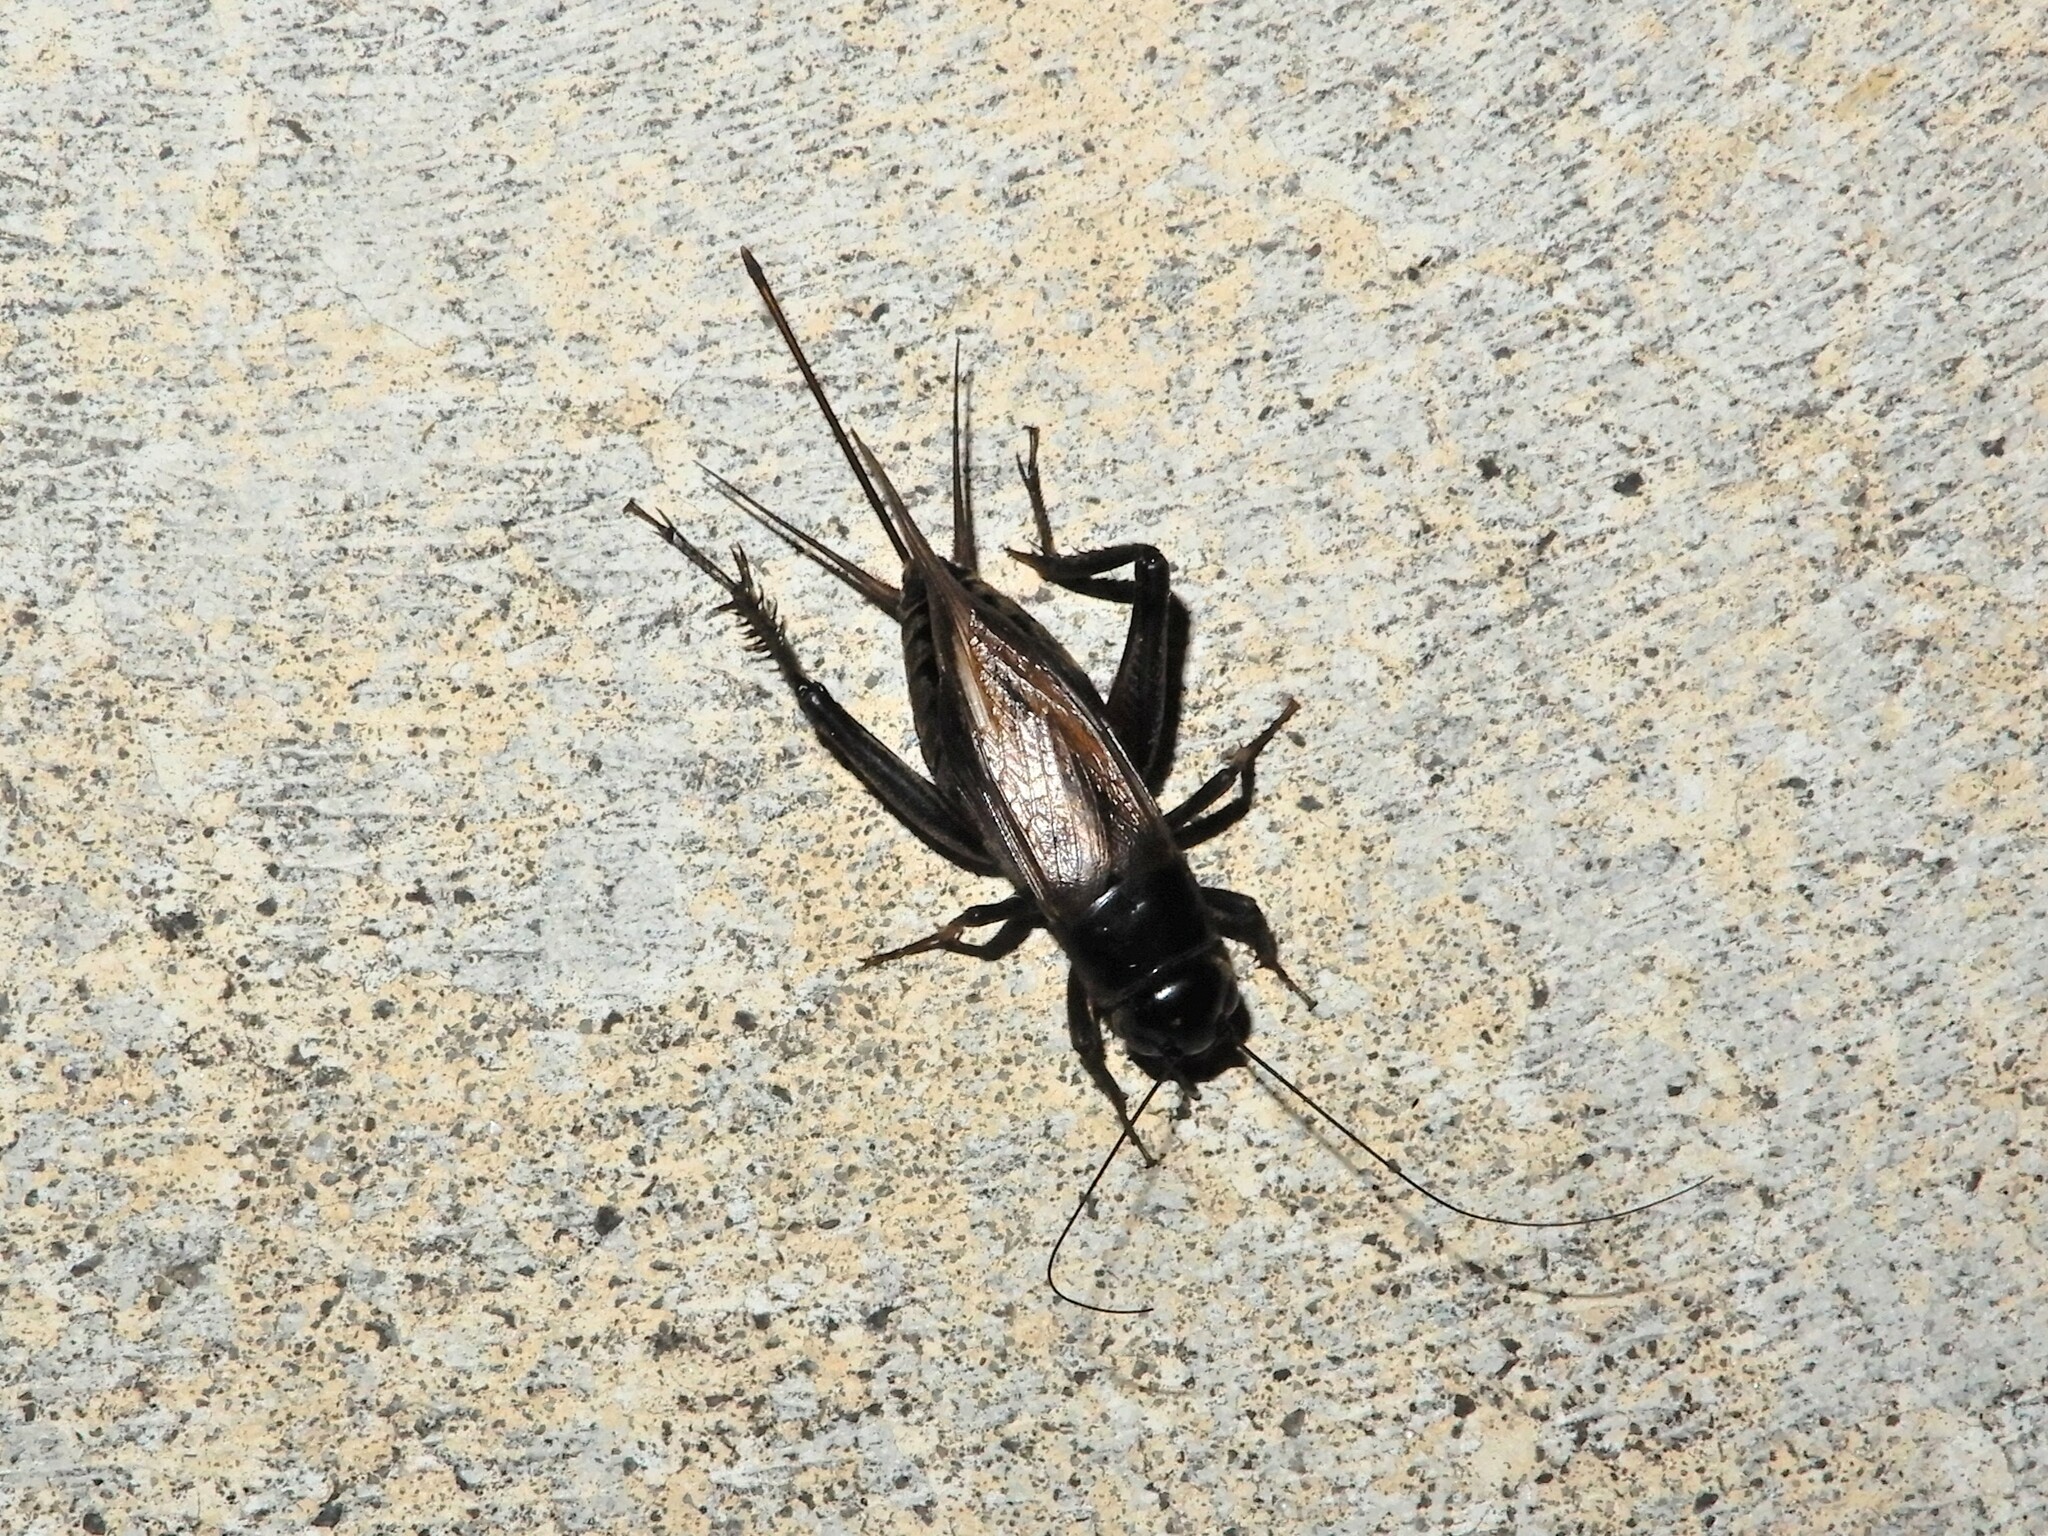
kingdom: Animalia
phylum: Arthropoda
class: Insecta
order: Orthoptera
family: Gryllidae
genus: Teleogryllus
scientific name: Teleogryllus commodus
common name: Black field cricket
